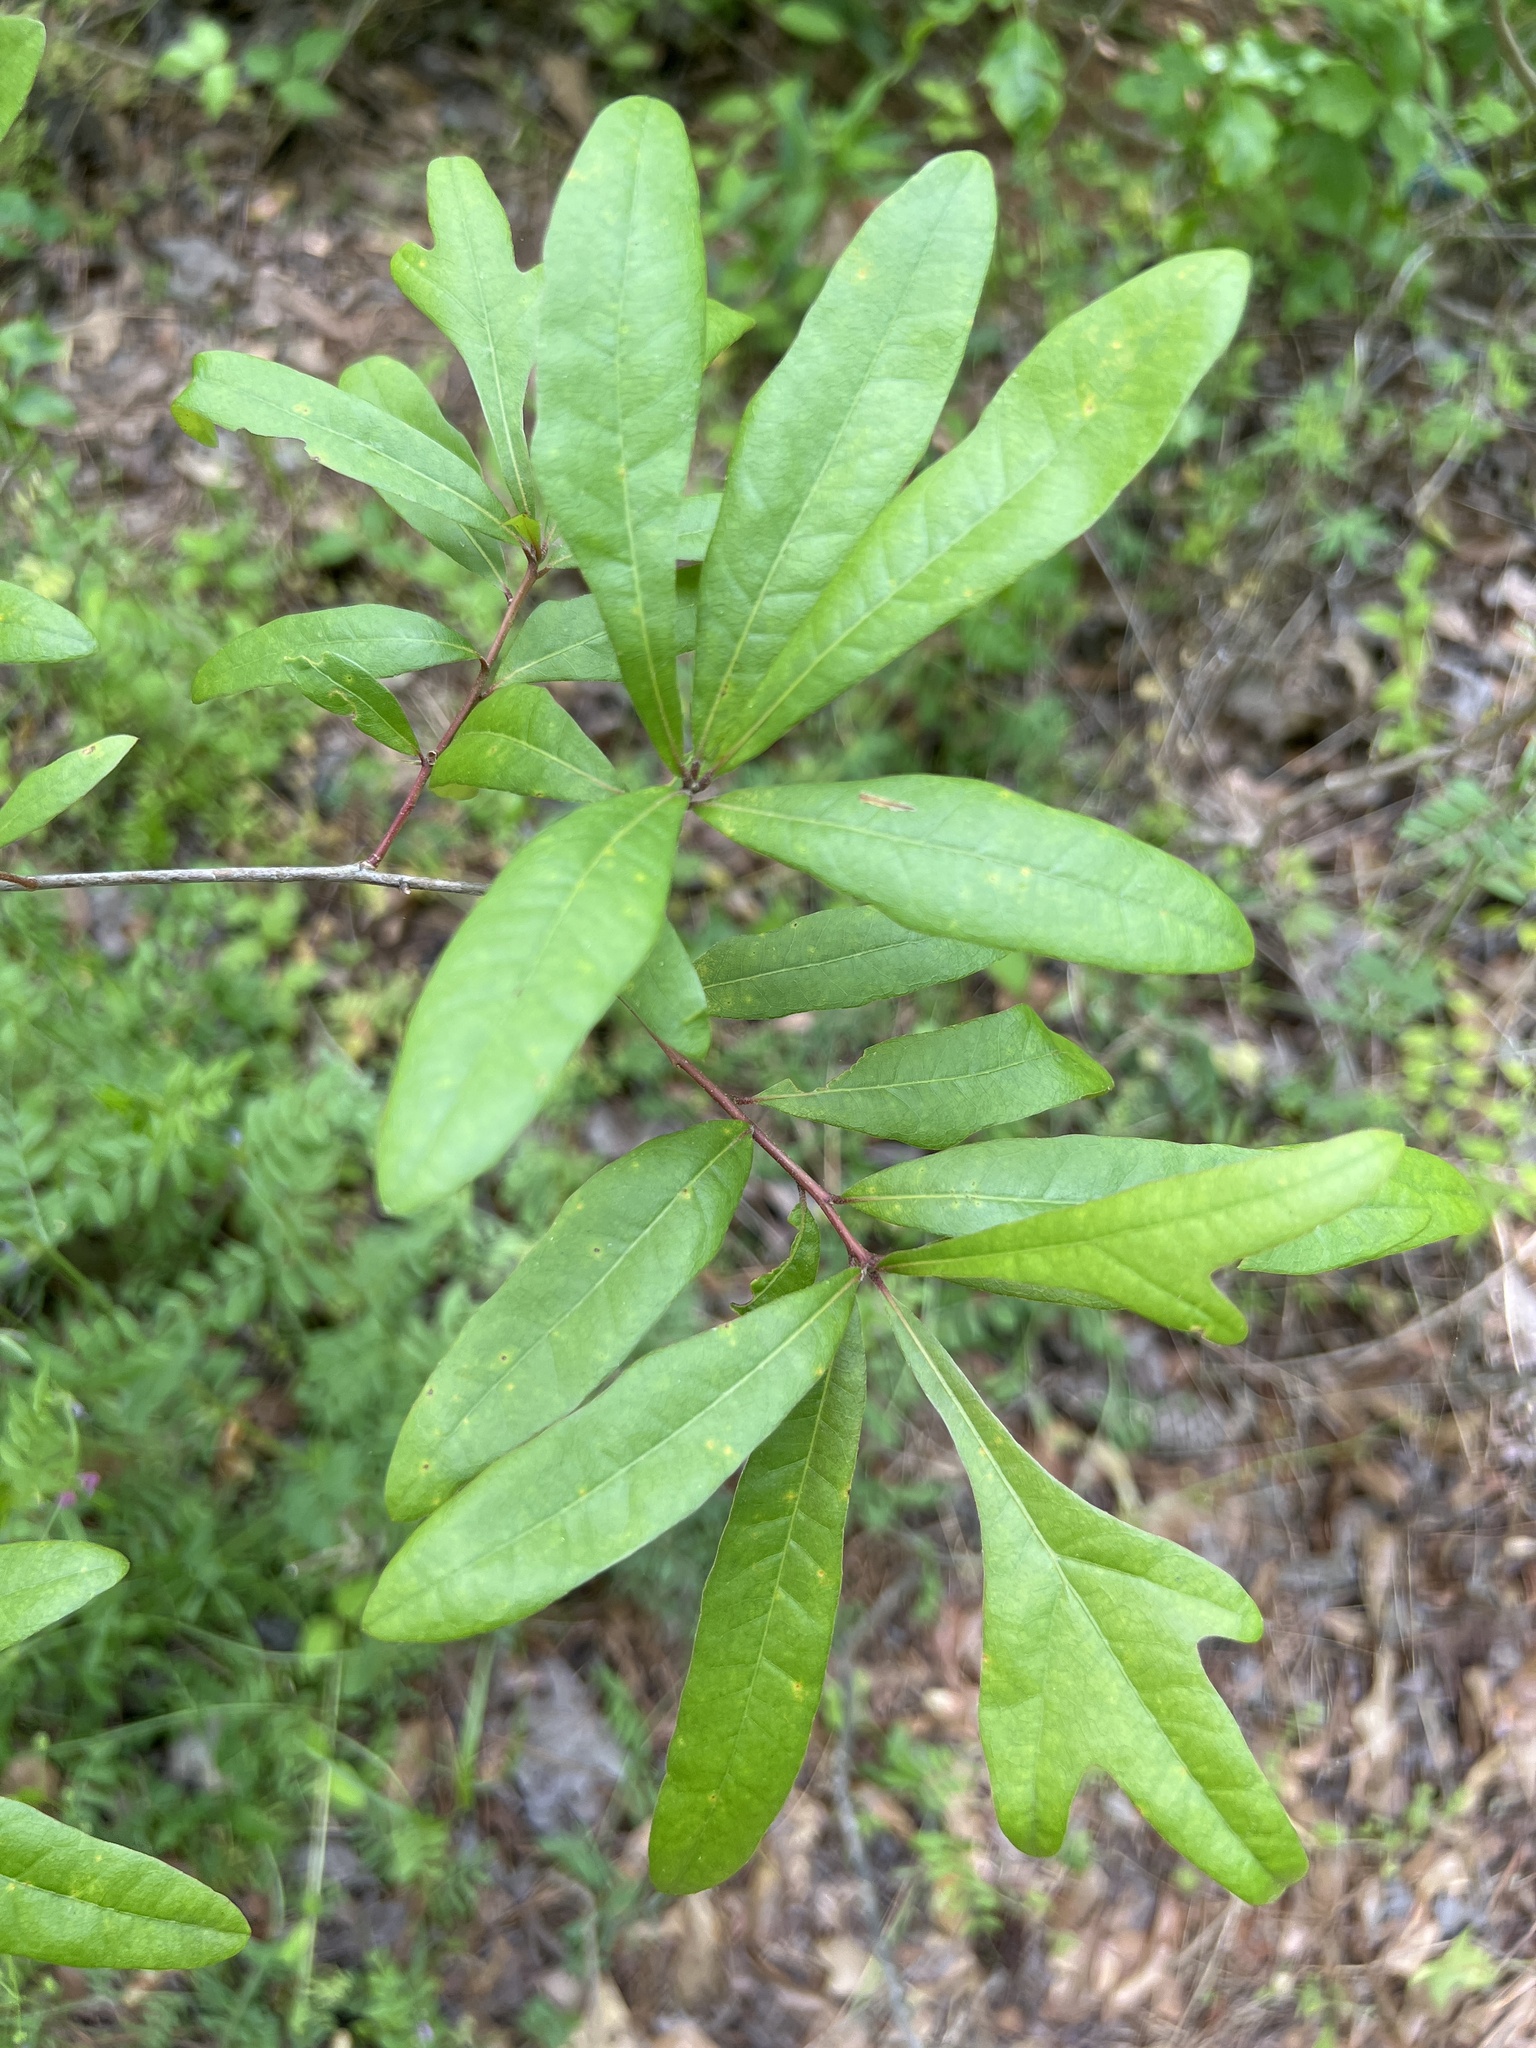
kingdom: Plantae
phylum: Tracheophyta
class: Magnoliopsida
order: Fagales
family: Fagaceae
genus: Quercus
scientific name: Quercus nigra
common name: Water oak
